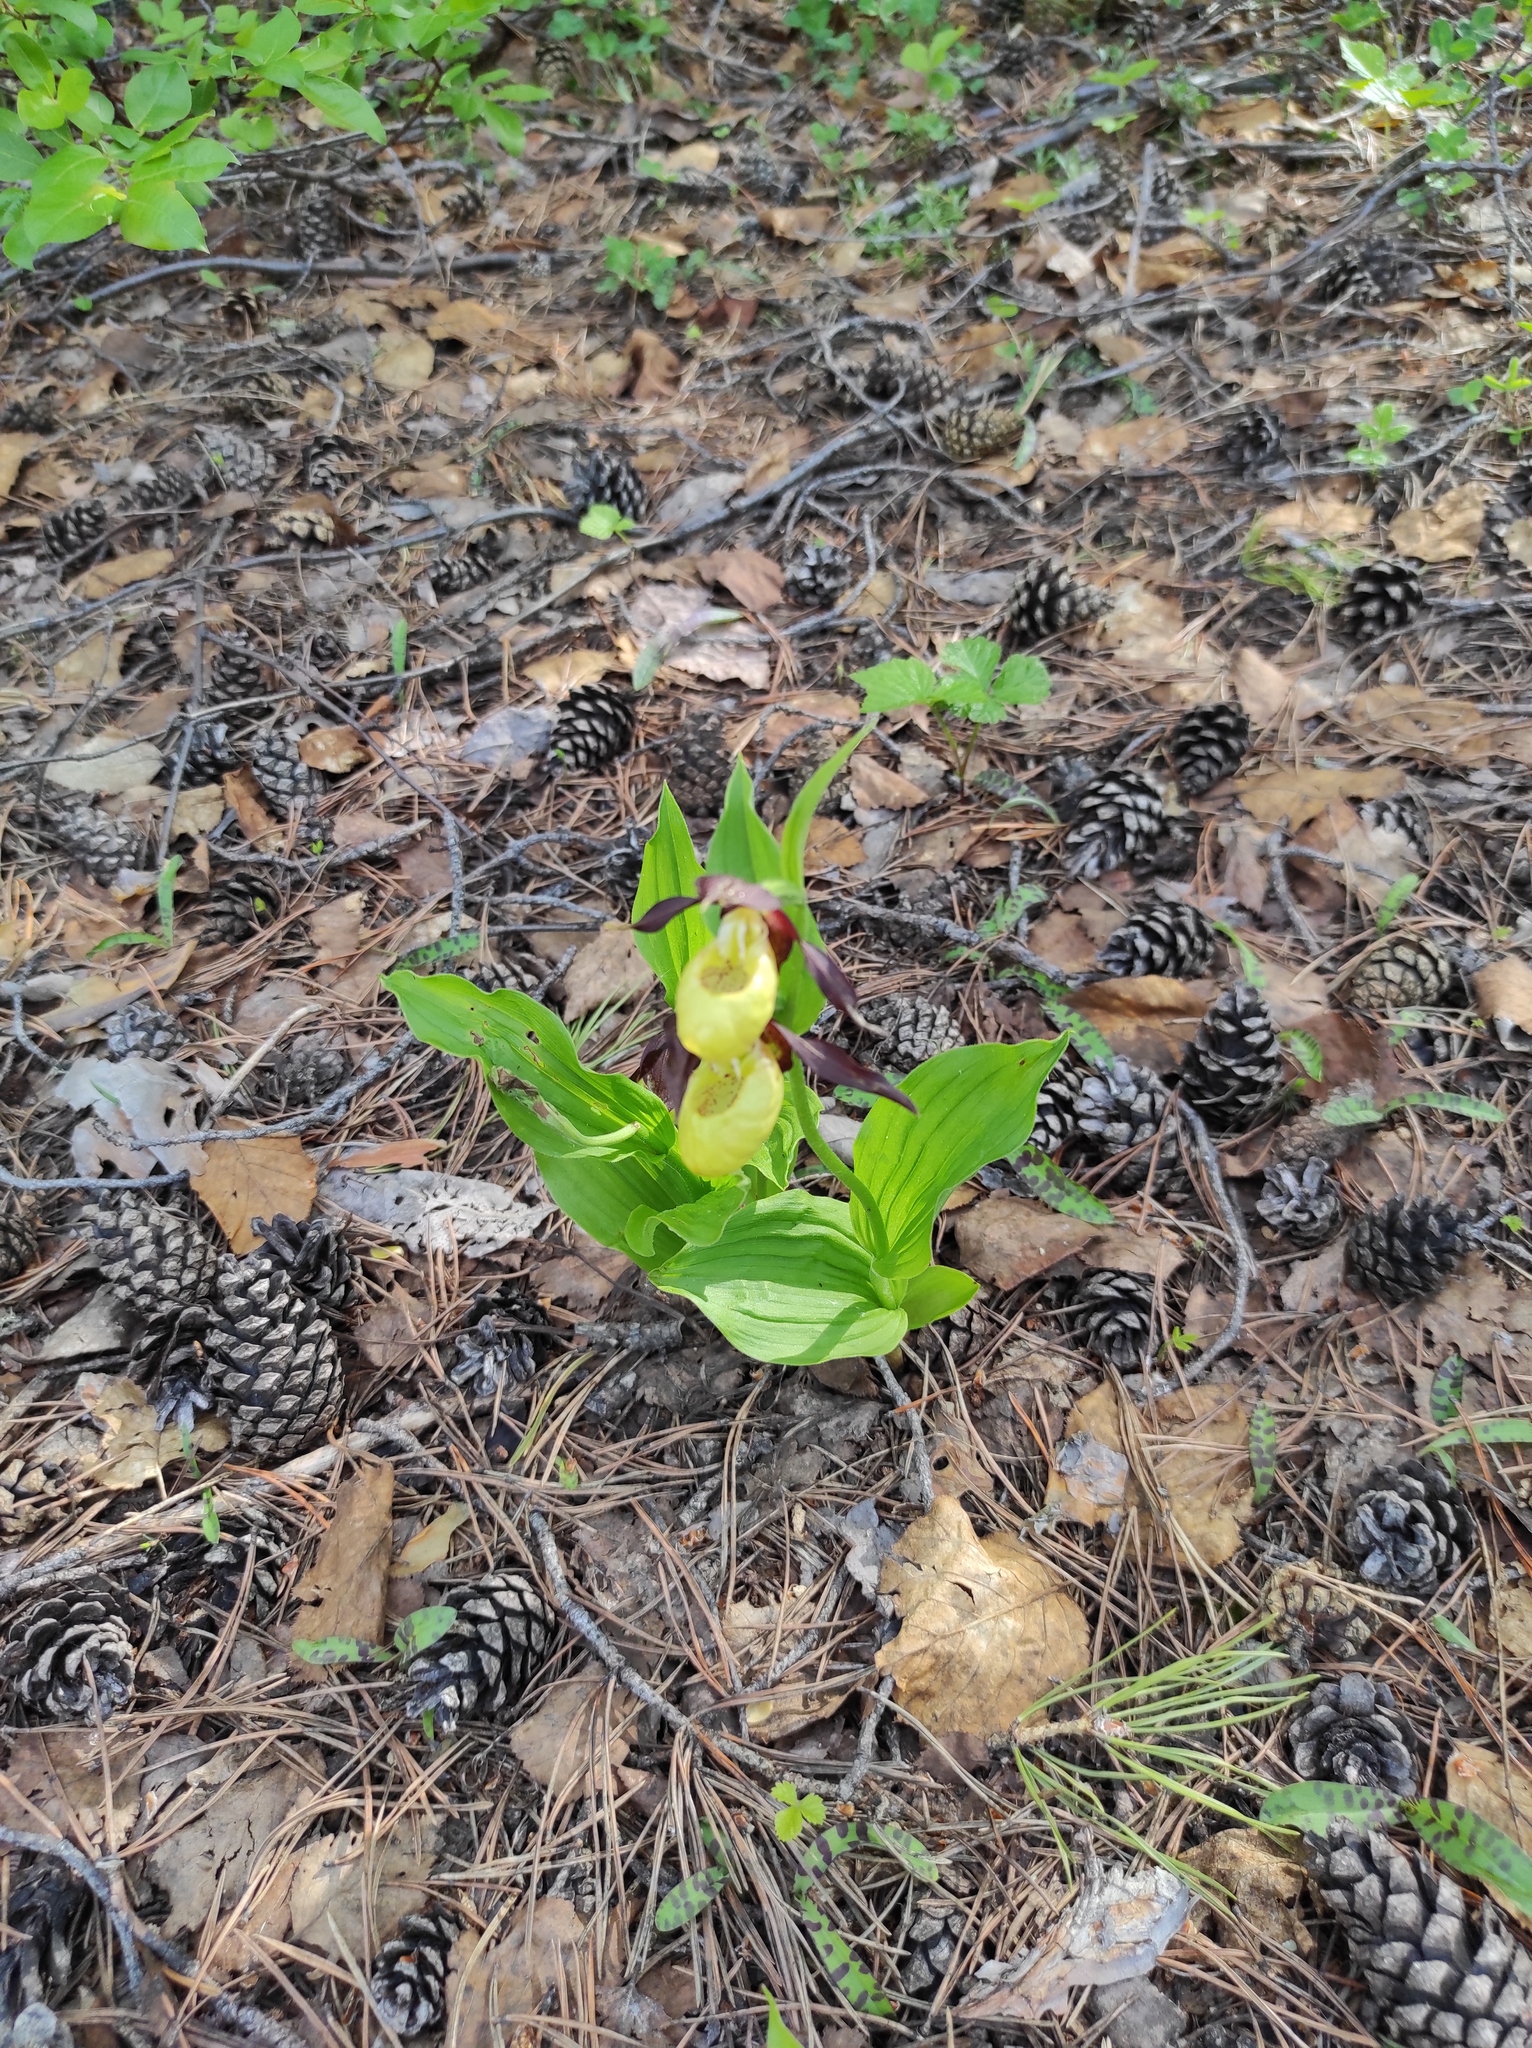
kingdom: Plantae
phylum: Tracheophyta
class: Liliopsida
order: Asparagales
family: Orchidaceae
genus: Cypripedium
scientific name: Cypripedium calceolus
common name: Lady's-slipper
